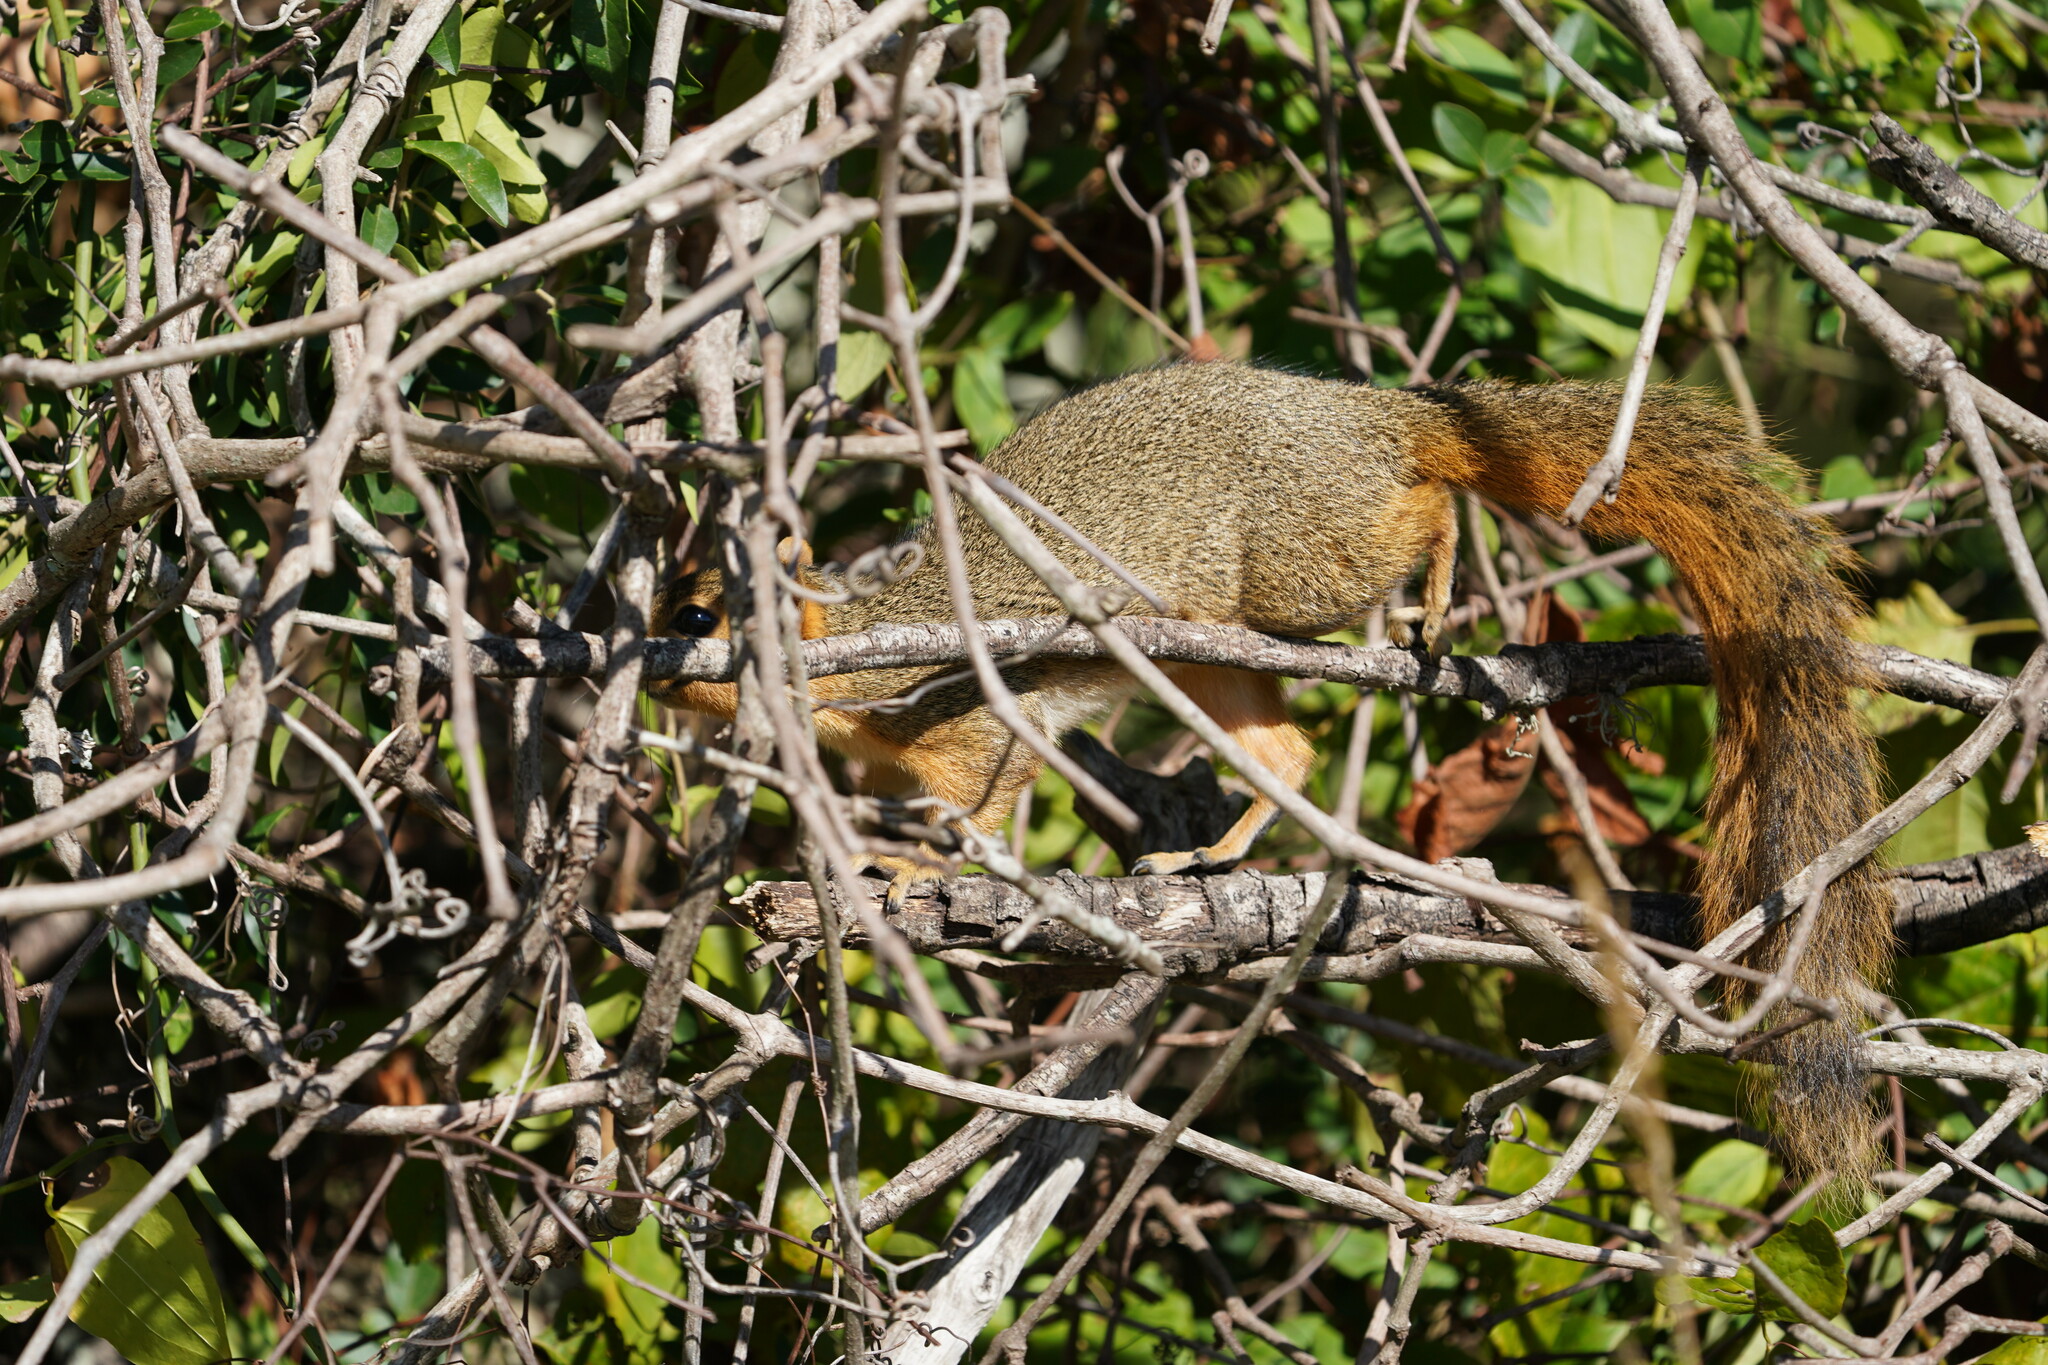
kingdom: Animalia
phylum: Chordata
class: Mammalia
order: Rodentia
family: Sciuridae
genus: Sciurus
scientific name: Sciurus niger
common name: Fox squirrel
